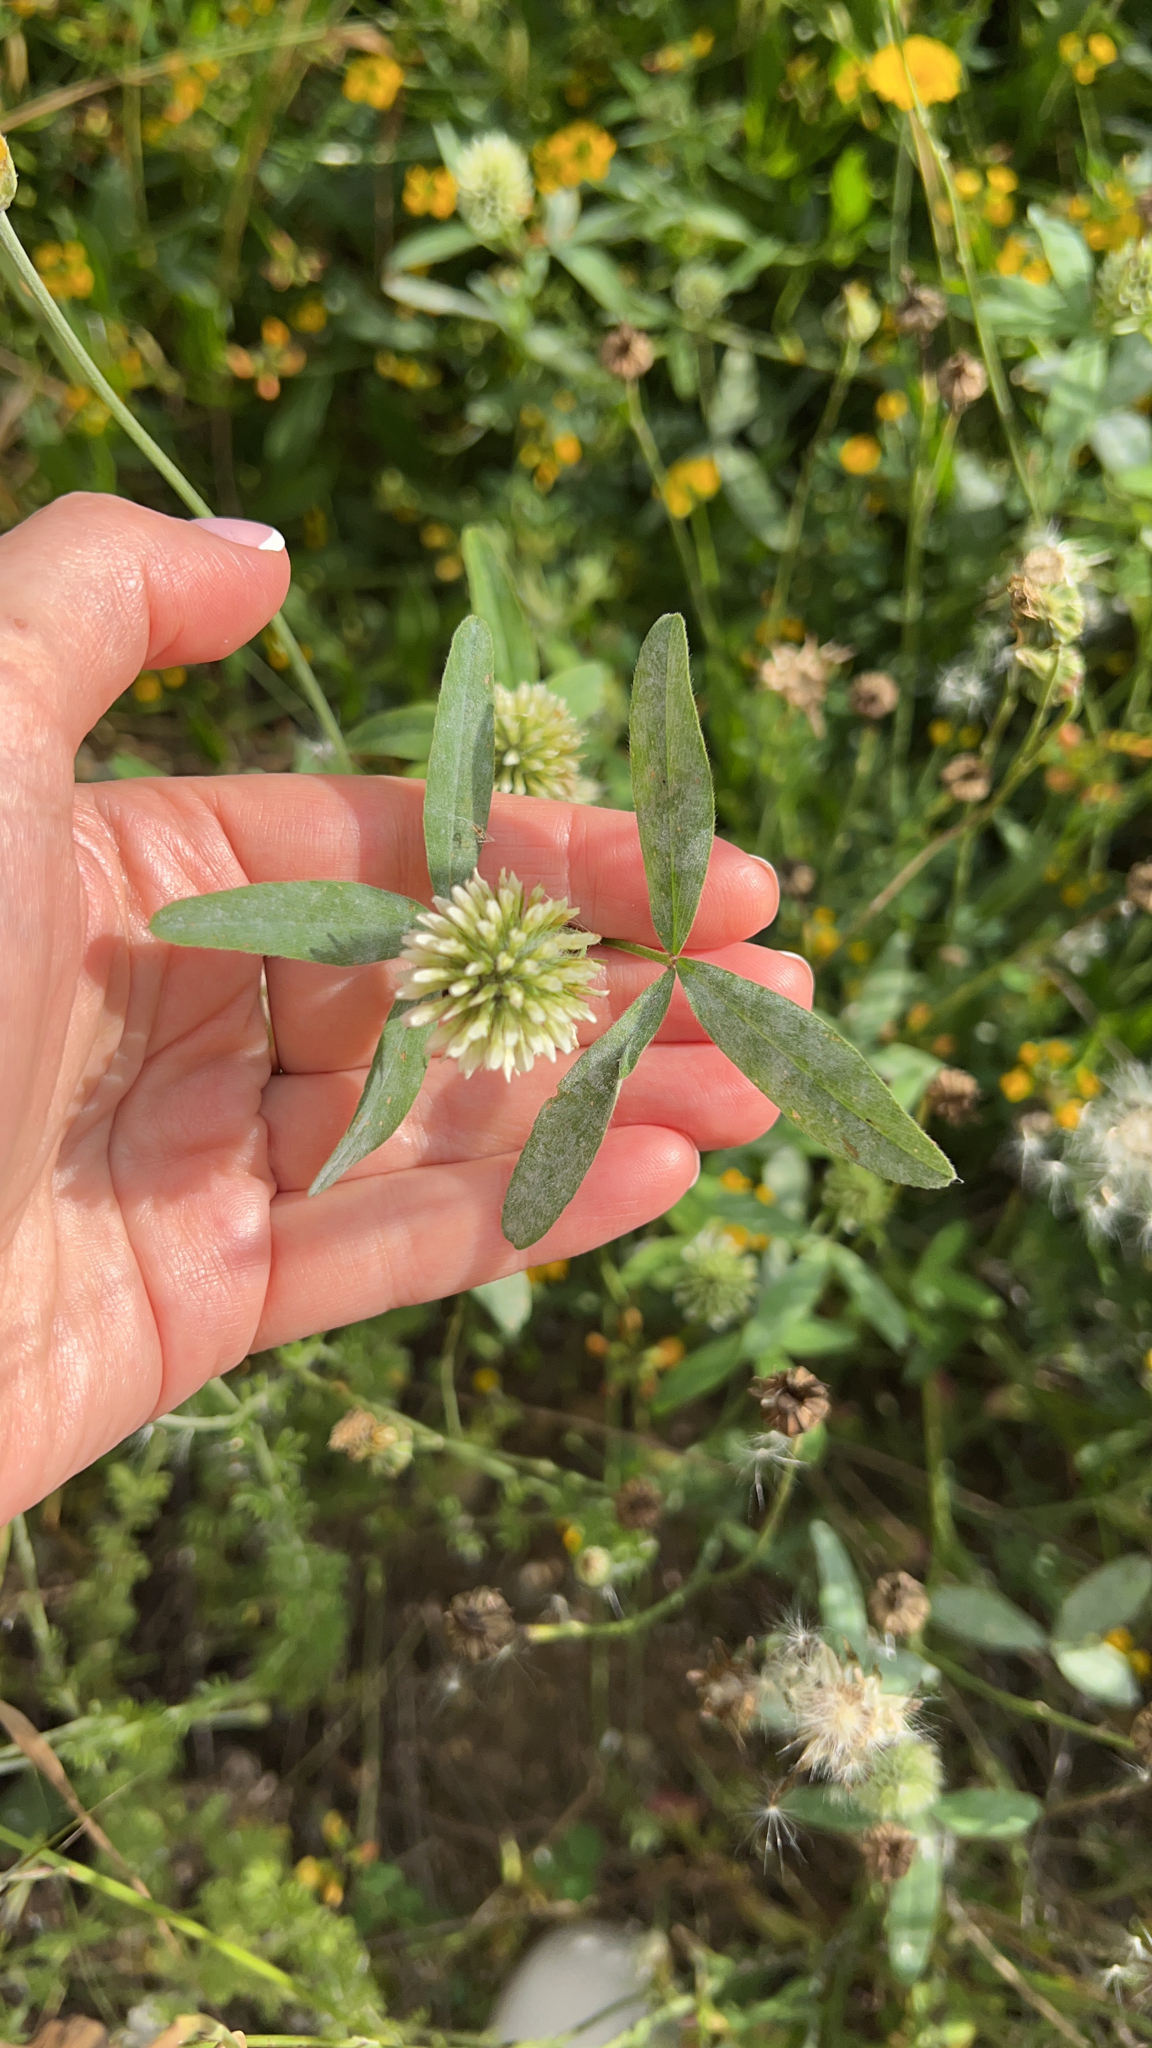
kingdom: Plantae
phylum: Tracheophyta
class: Magnoliopsida
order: Fabales
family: Fabaceae
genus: Trifolium
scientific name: Trifolium montanum
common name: Mountain clover
